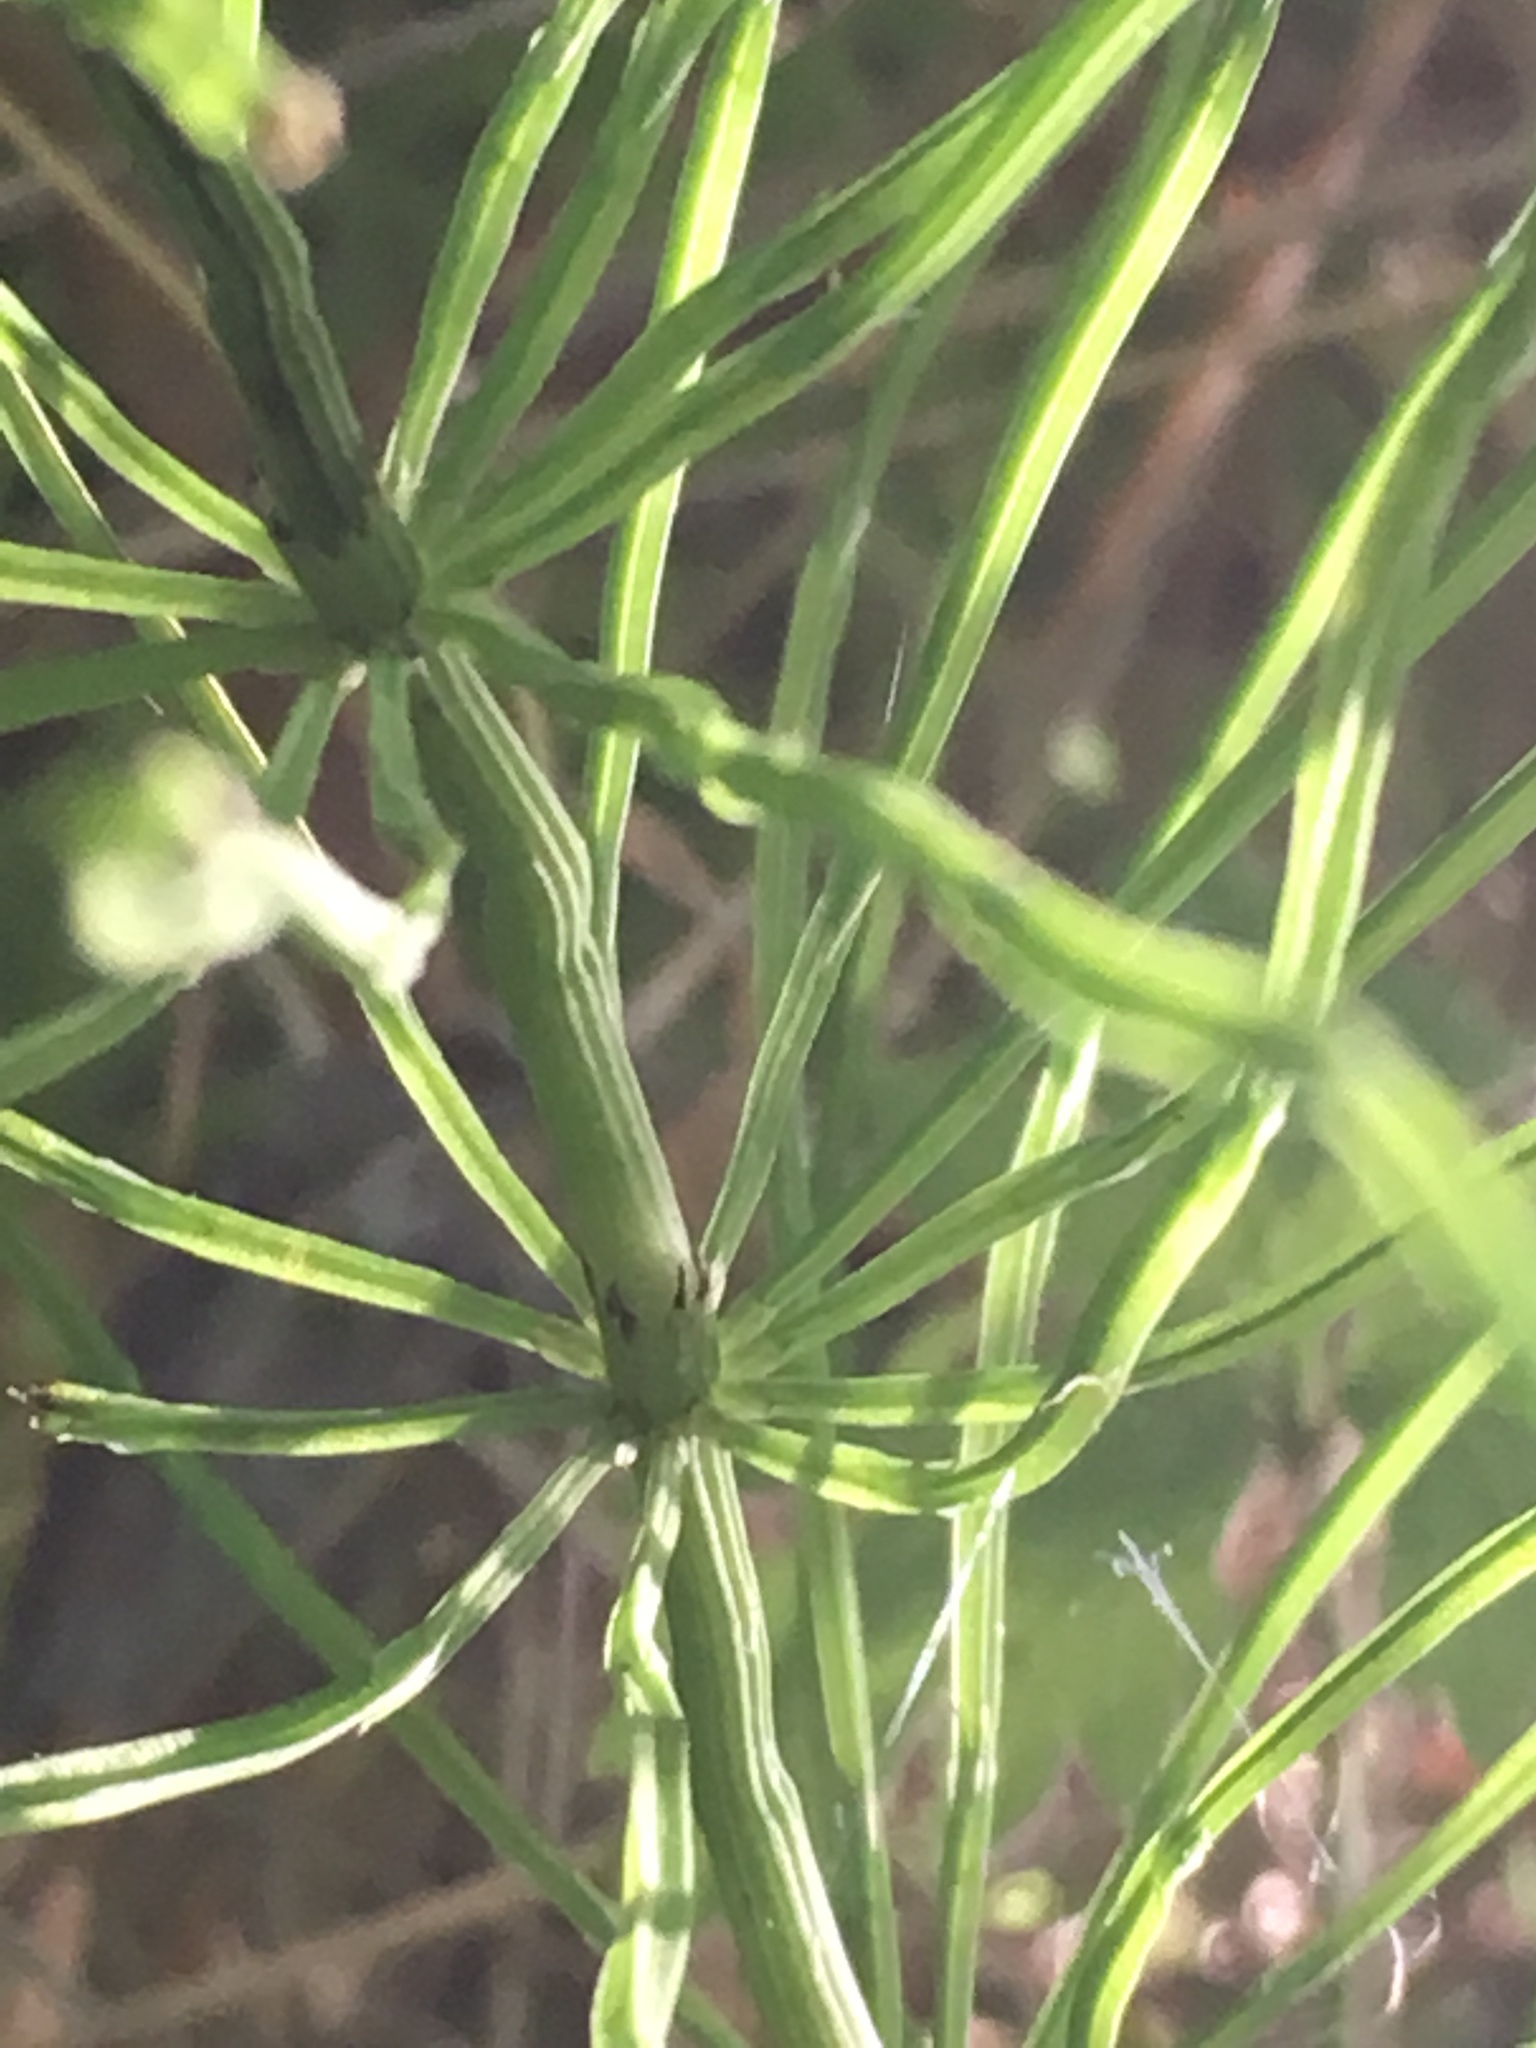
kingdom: Plantae
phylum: Tracheophyta
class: Polypodiopsida
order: Equisetales
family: Equisetaceae
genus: Equisetum
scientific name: Equisetum arvense
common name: Field horsetail
